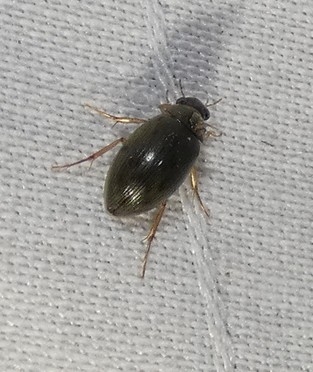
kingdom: Animalia
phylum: Arthropoda
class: Insecta
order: Coleoptera
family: Hydrophilidae
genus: Berosus
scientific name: Berosus
